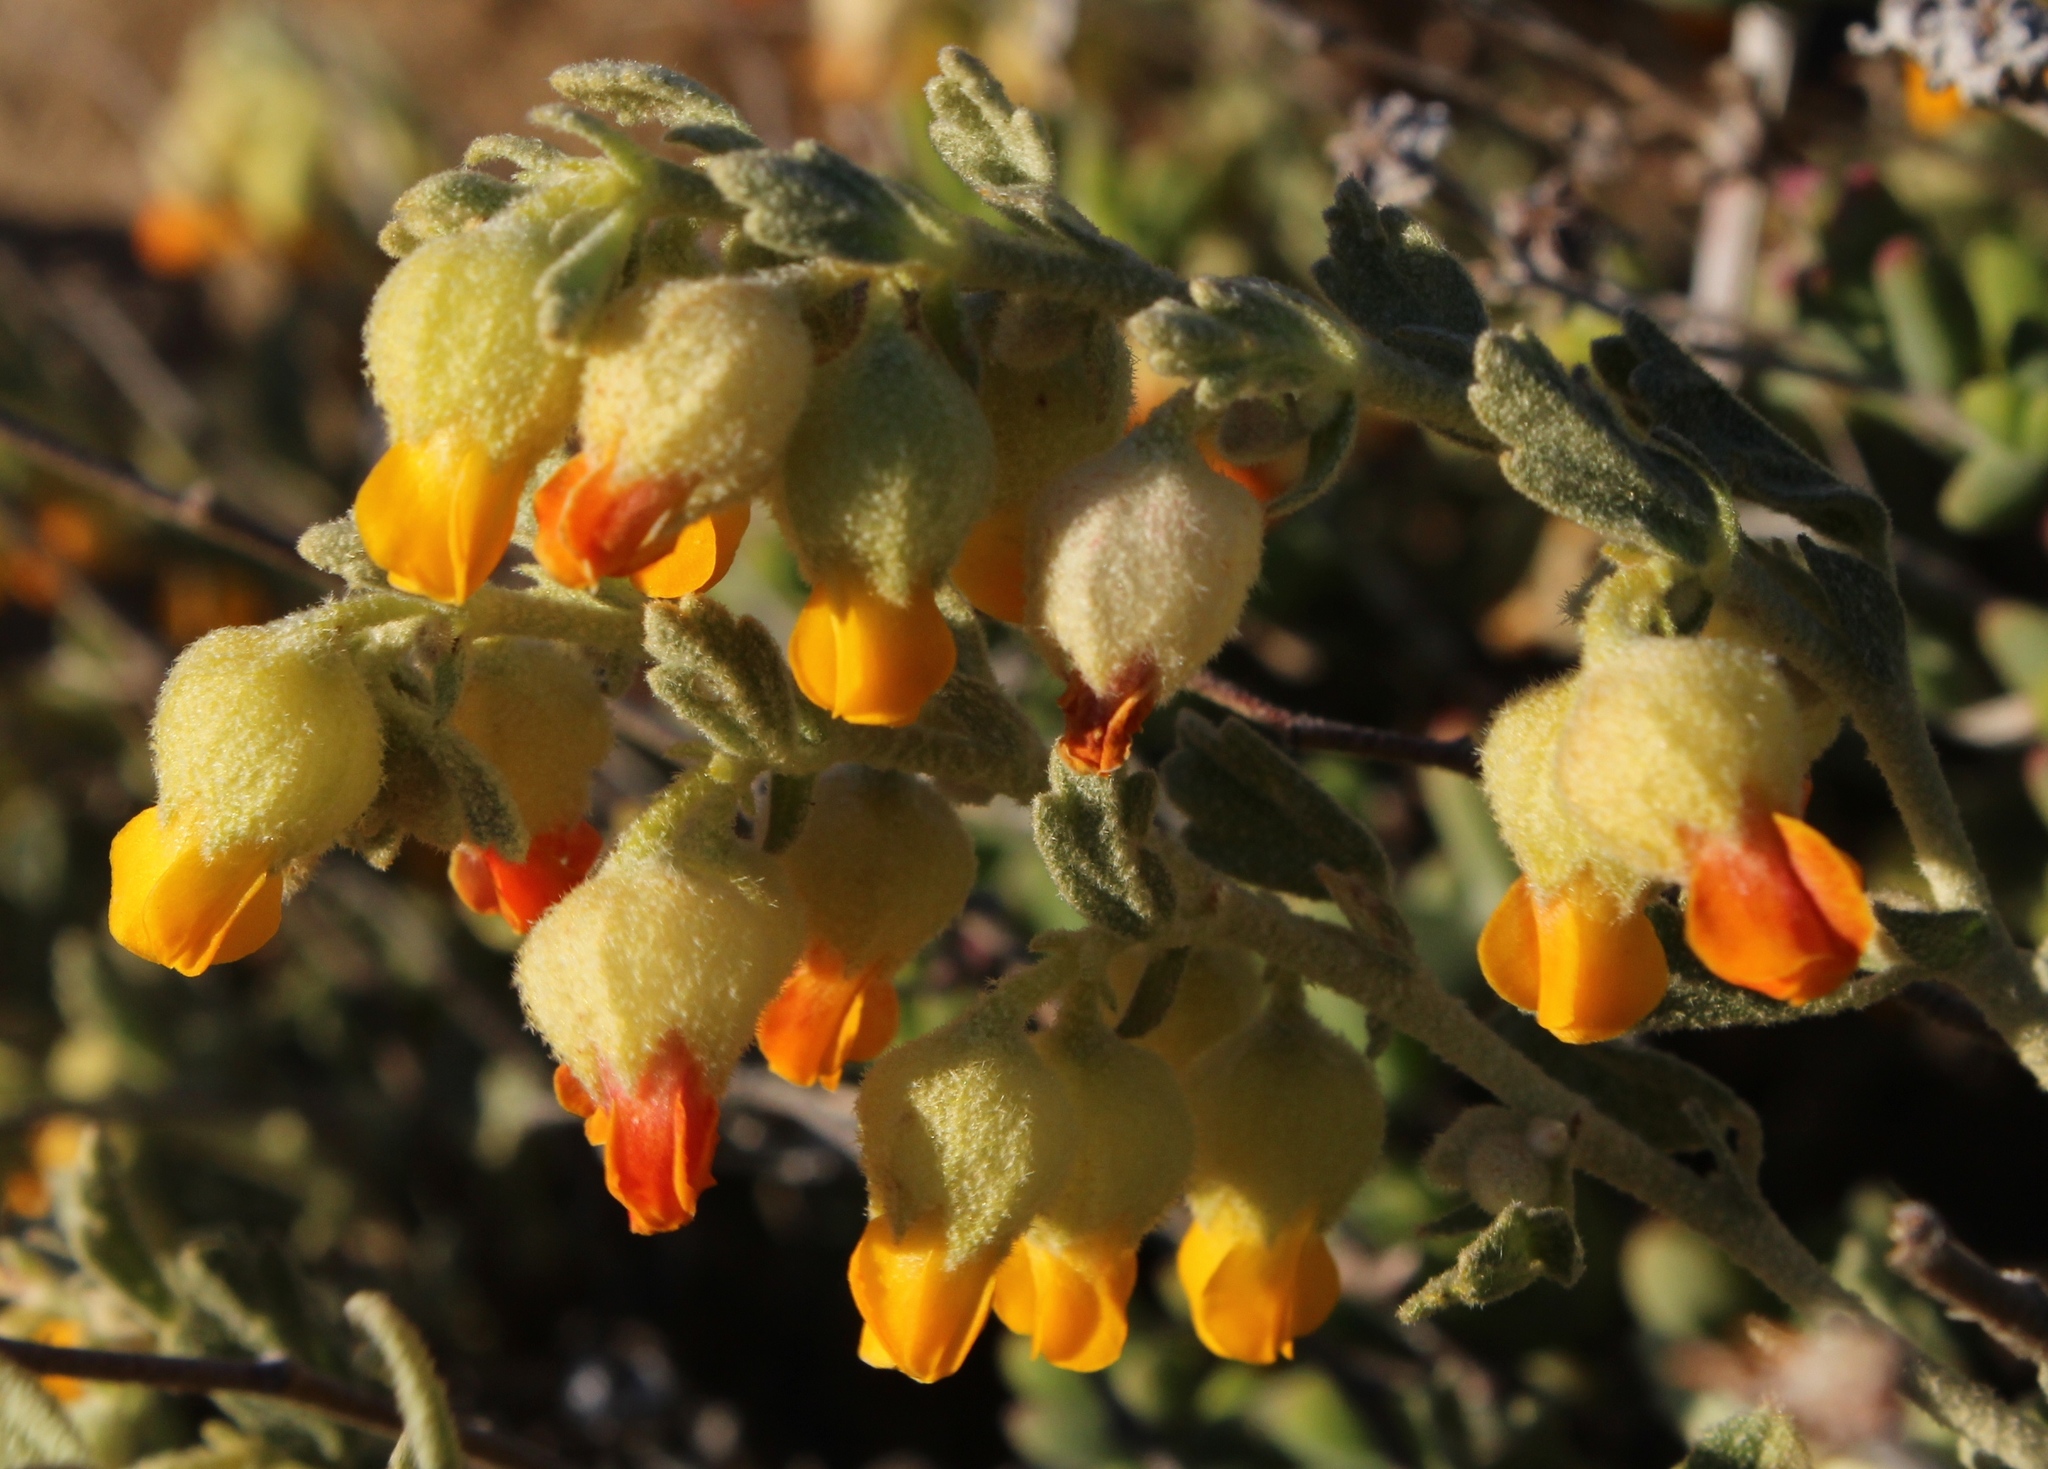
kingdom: Plantae
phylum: Tracheophyta
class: Magnoliopsida
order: Malvales
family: Malvaceae
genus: Hermannia
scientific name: Hermannia johanssenii
